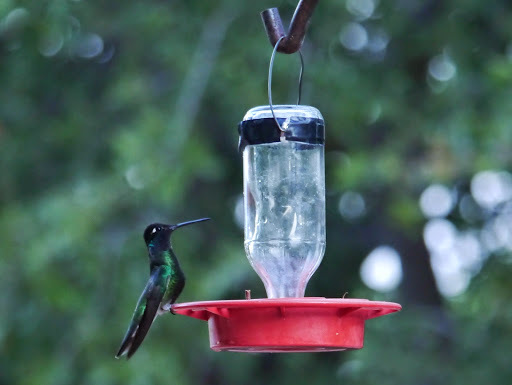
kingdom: Animalia
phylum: Chordata
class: Aves
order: Apodiformes
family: Trochilidae
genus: Eugenes
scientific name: Eugenes fulgens
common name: Magnificent hummingbird
